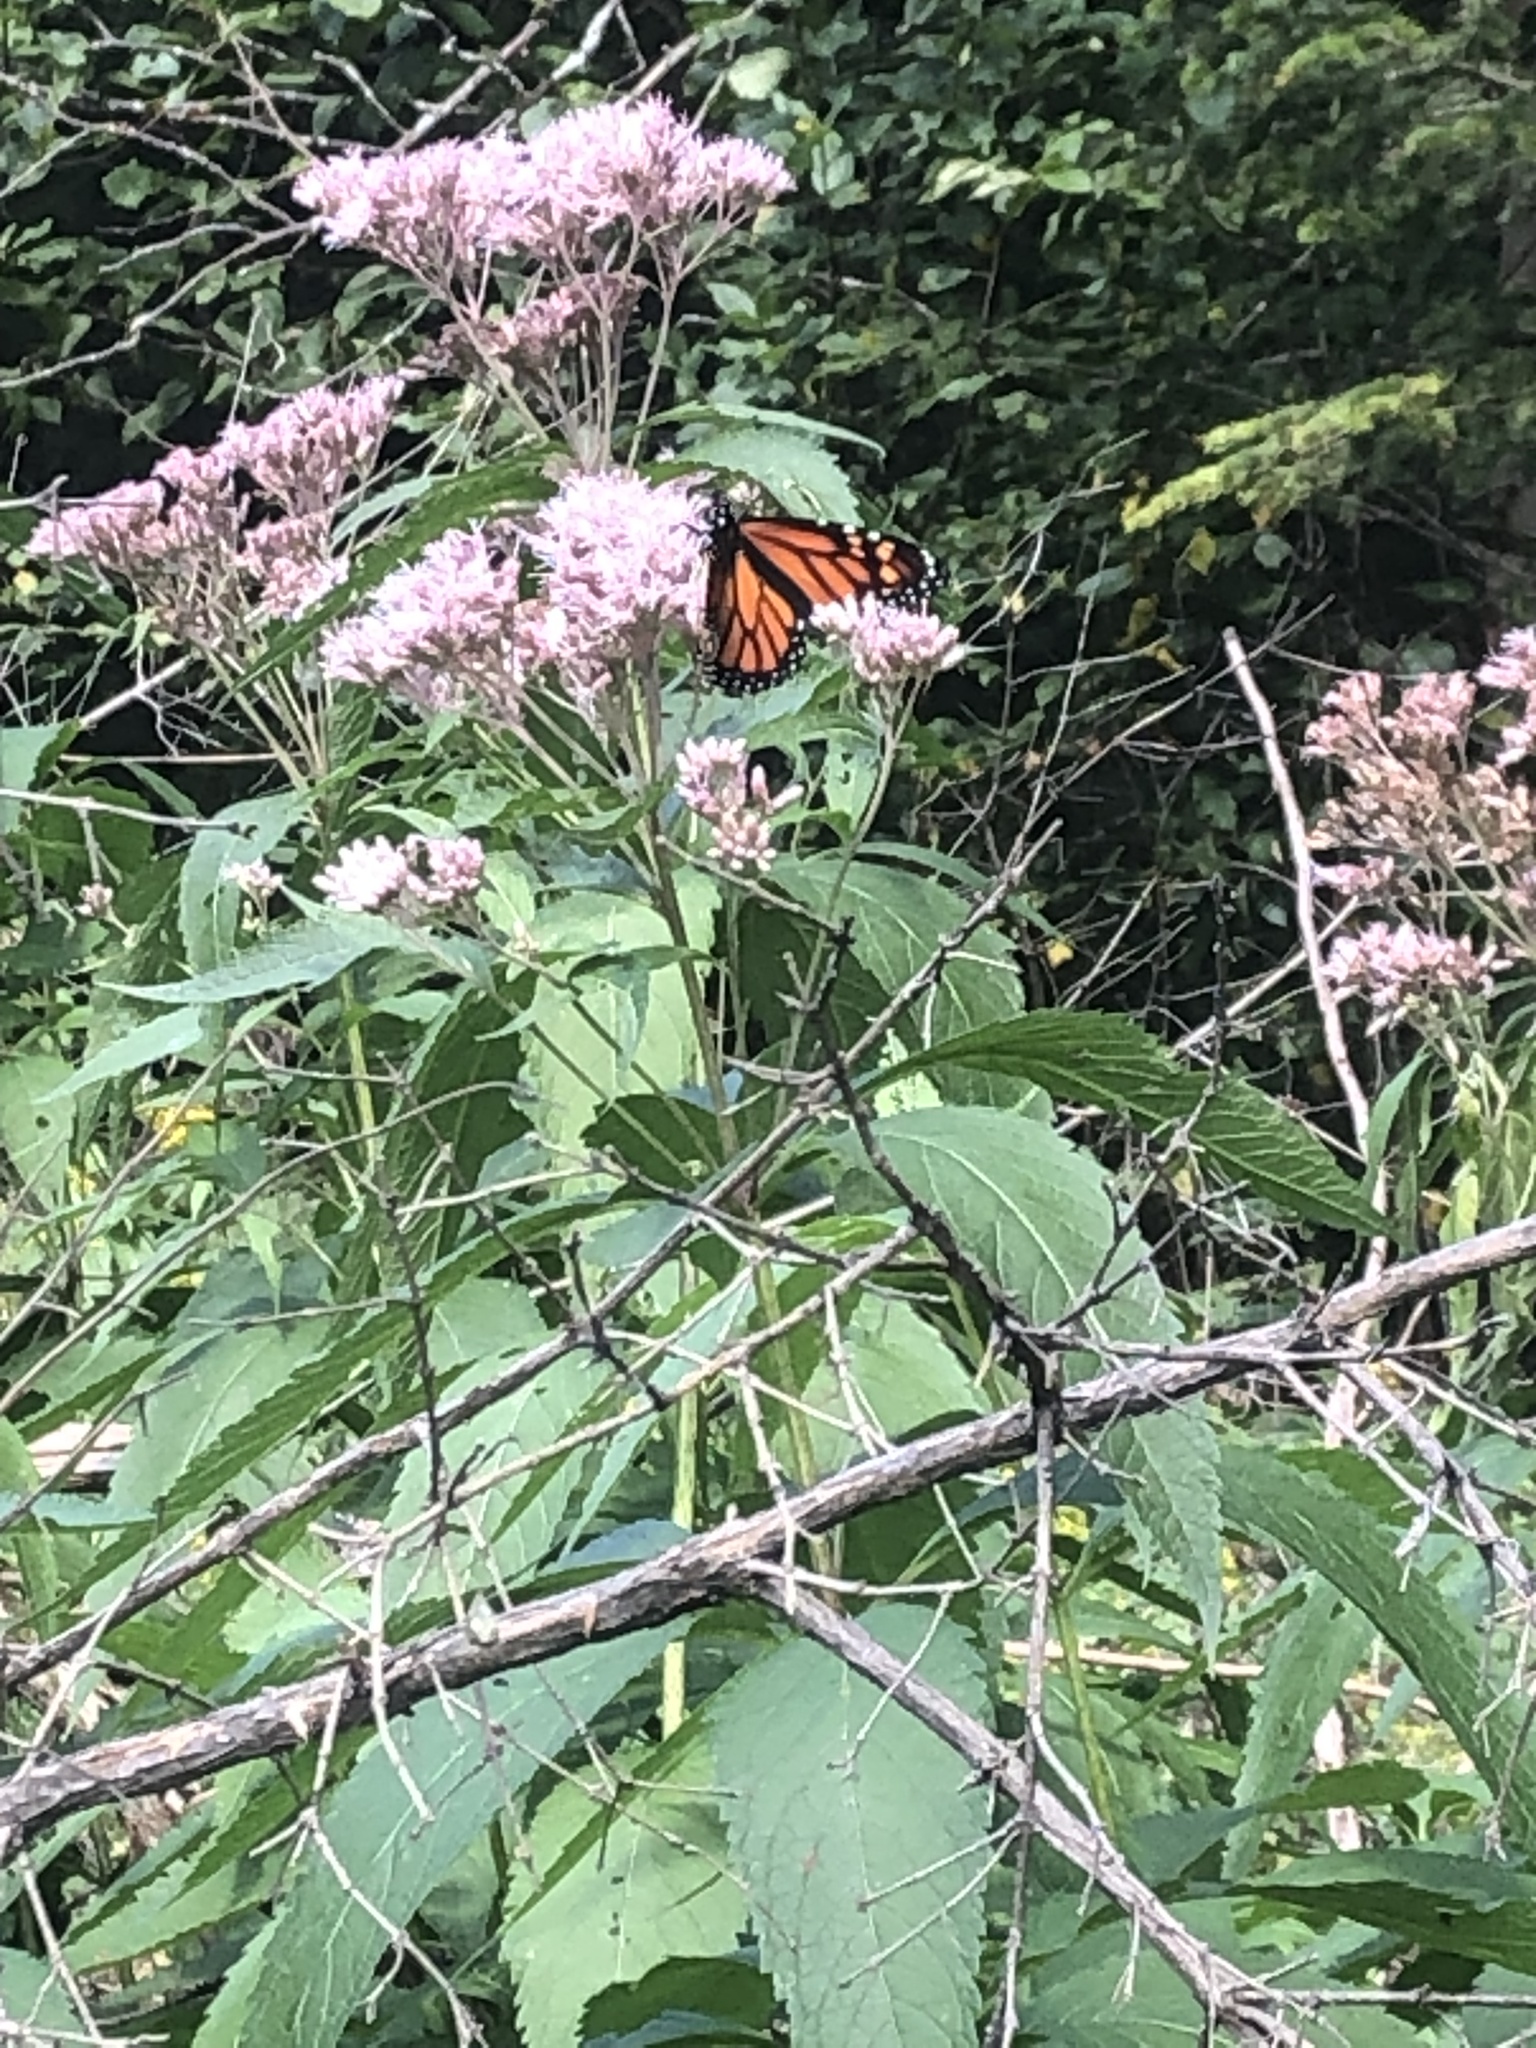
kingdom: Animalia
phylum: Arthropoda
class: Insecta
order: Lepidoptera
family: Nymphalidae
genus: Danaus
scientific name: Danaus plexippus
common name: Monarch
